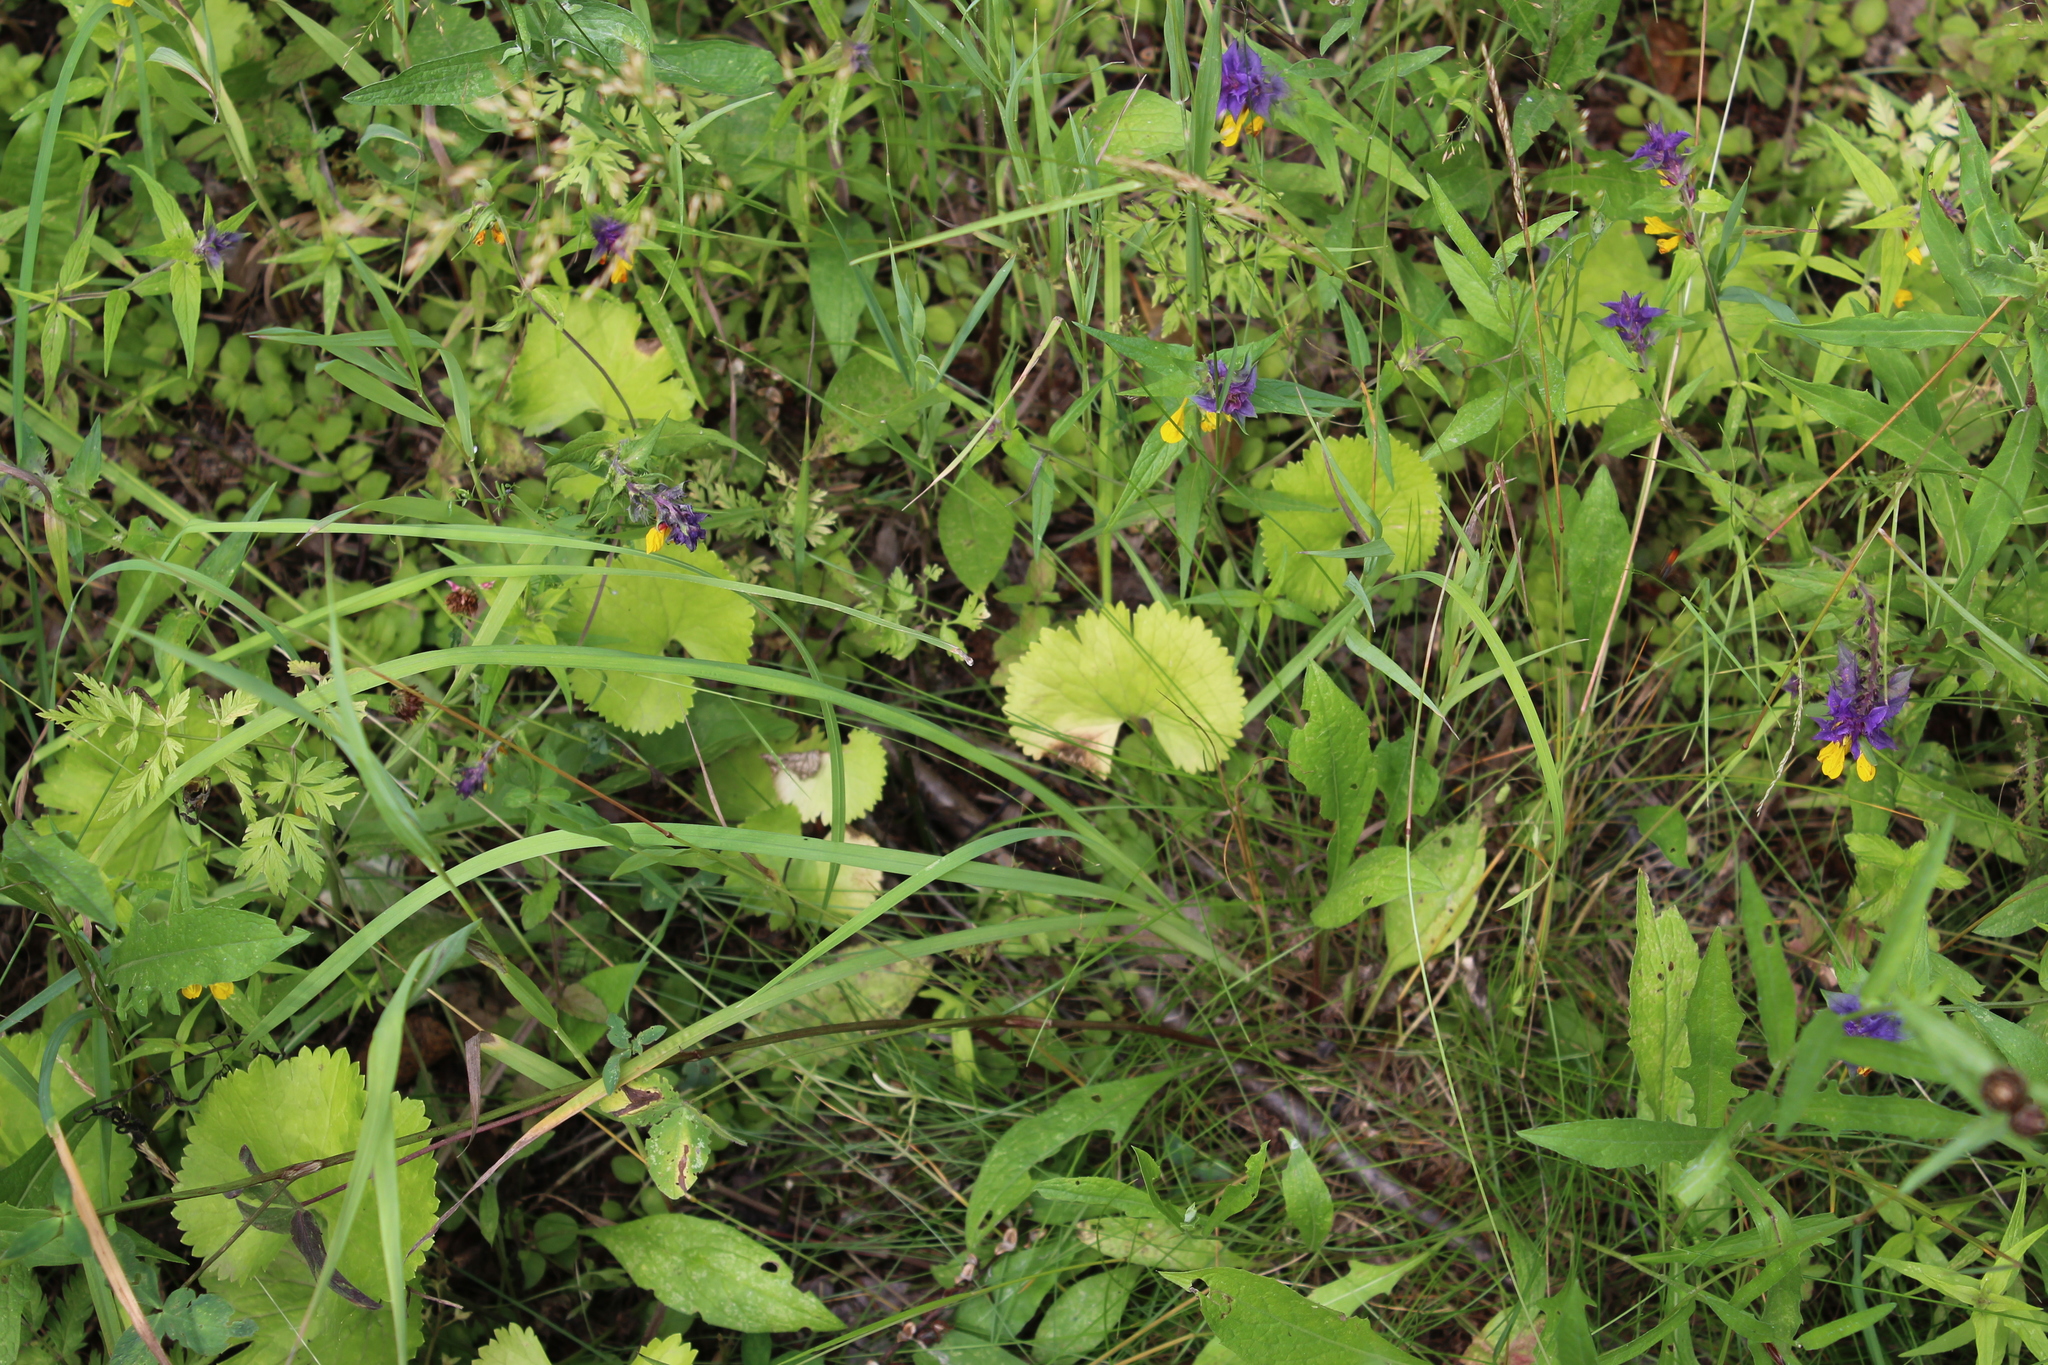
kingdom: Plantae
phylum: Tracheophyta
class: Magnoliopsida
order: Ranunculales
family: Ranunculaceae
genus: Ranunculus
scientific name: Ranunculus cassubicus
